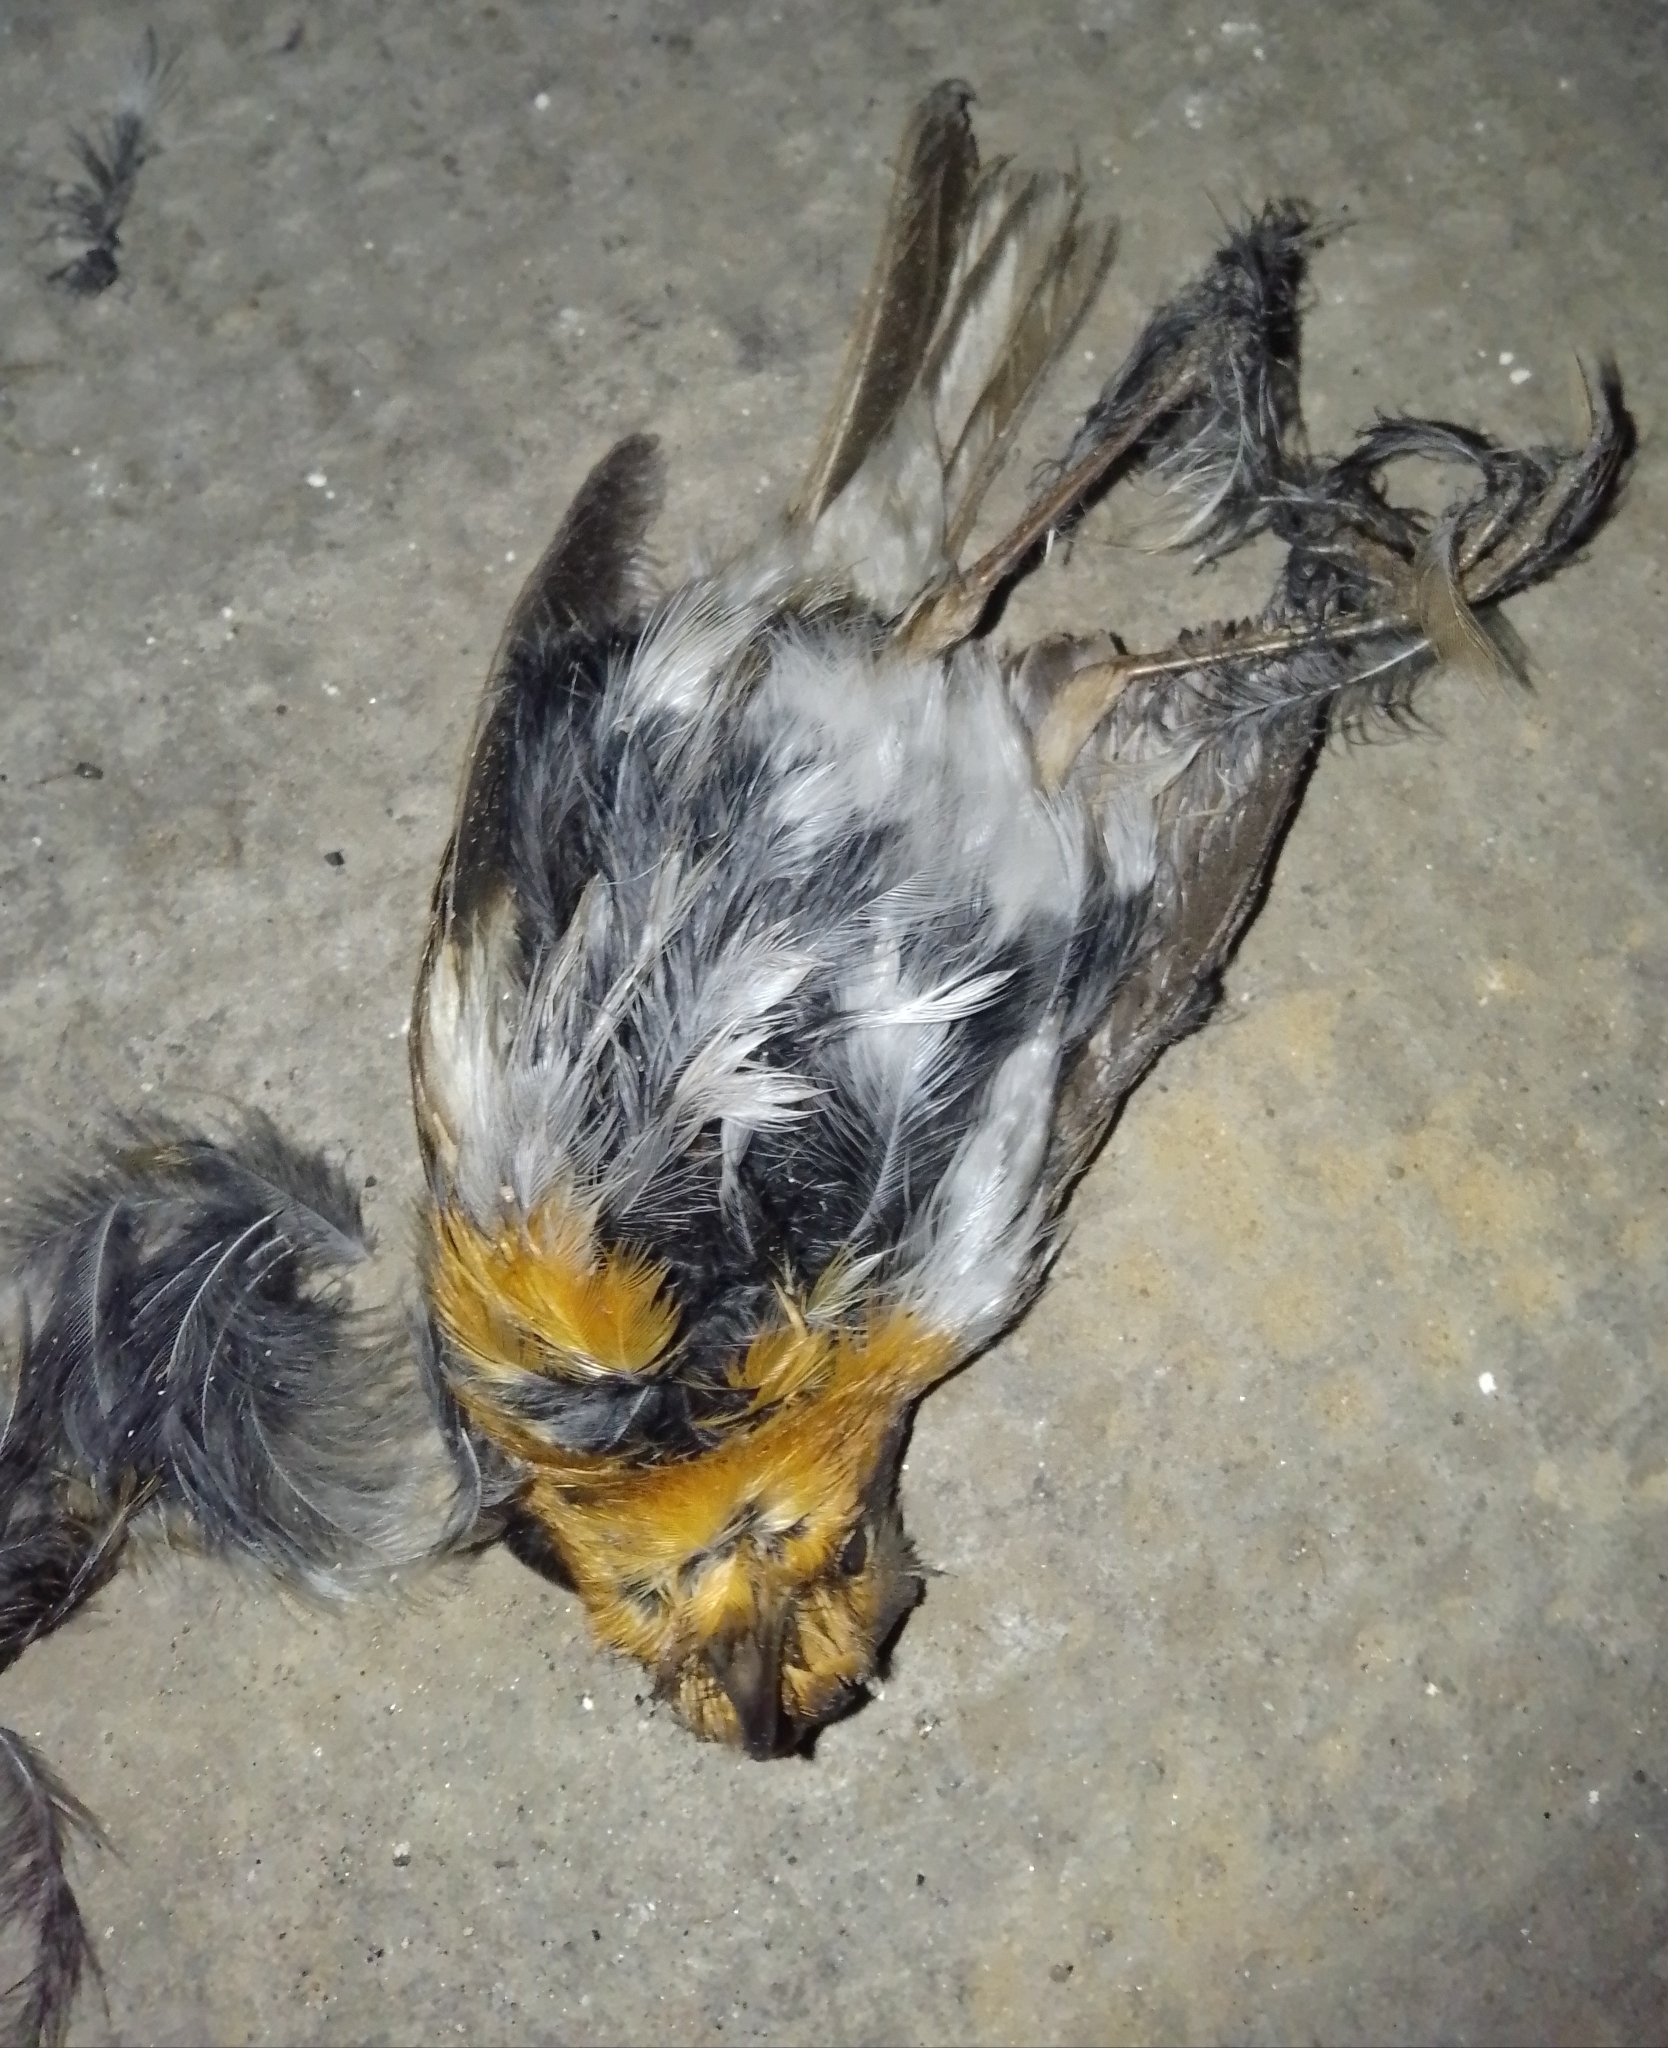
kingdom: Animalia
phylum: Chordata
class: Aves
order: Passeriformes
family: Muscicapidae
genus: Erithacus
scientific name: Erithacus rubecula
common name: European robin
